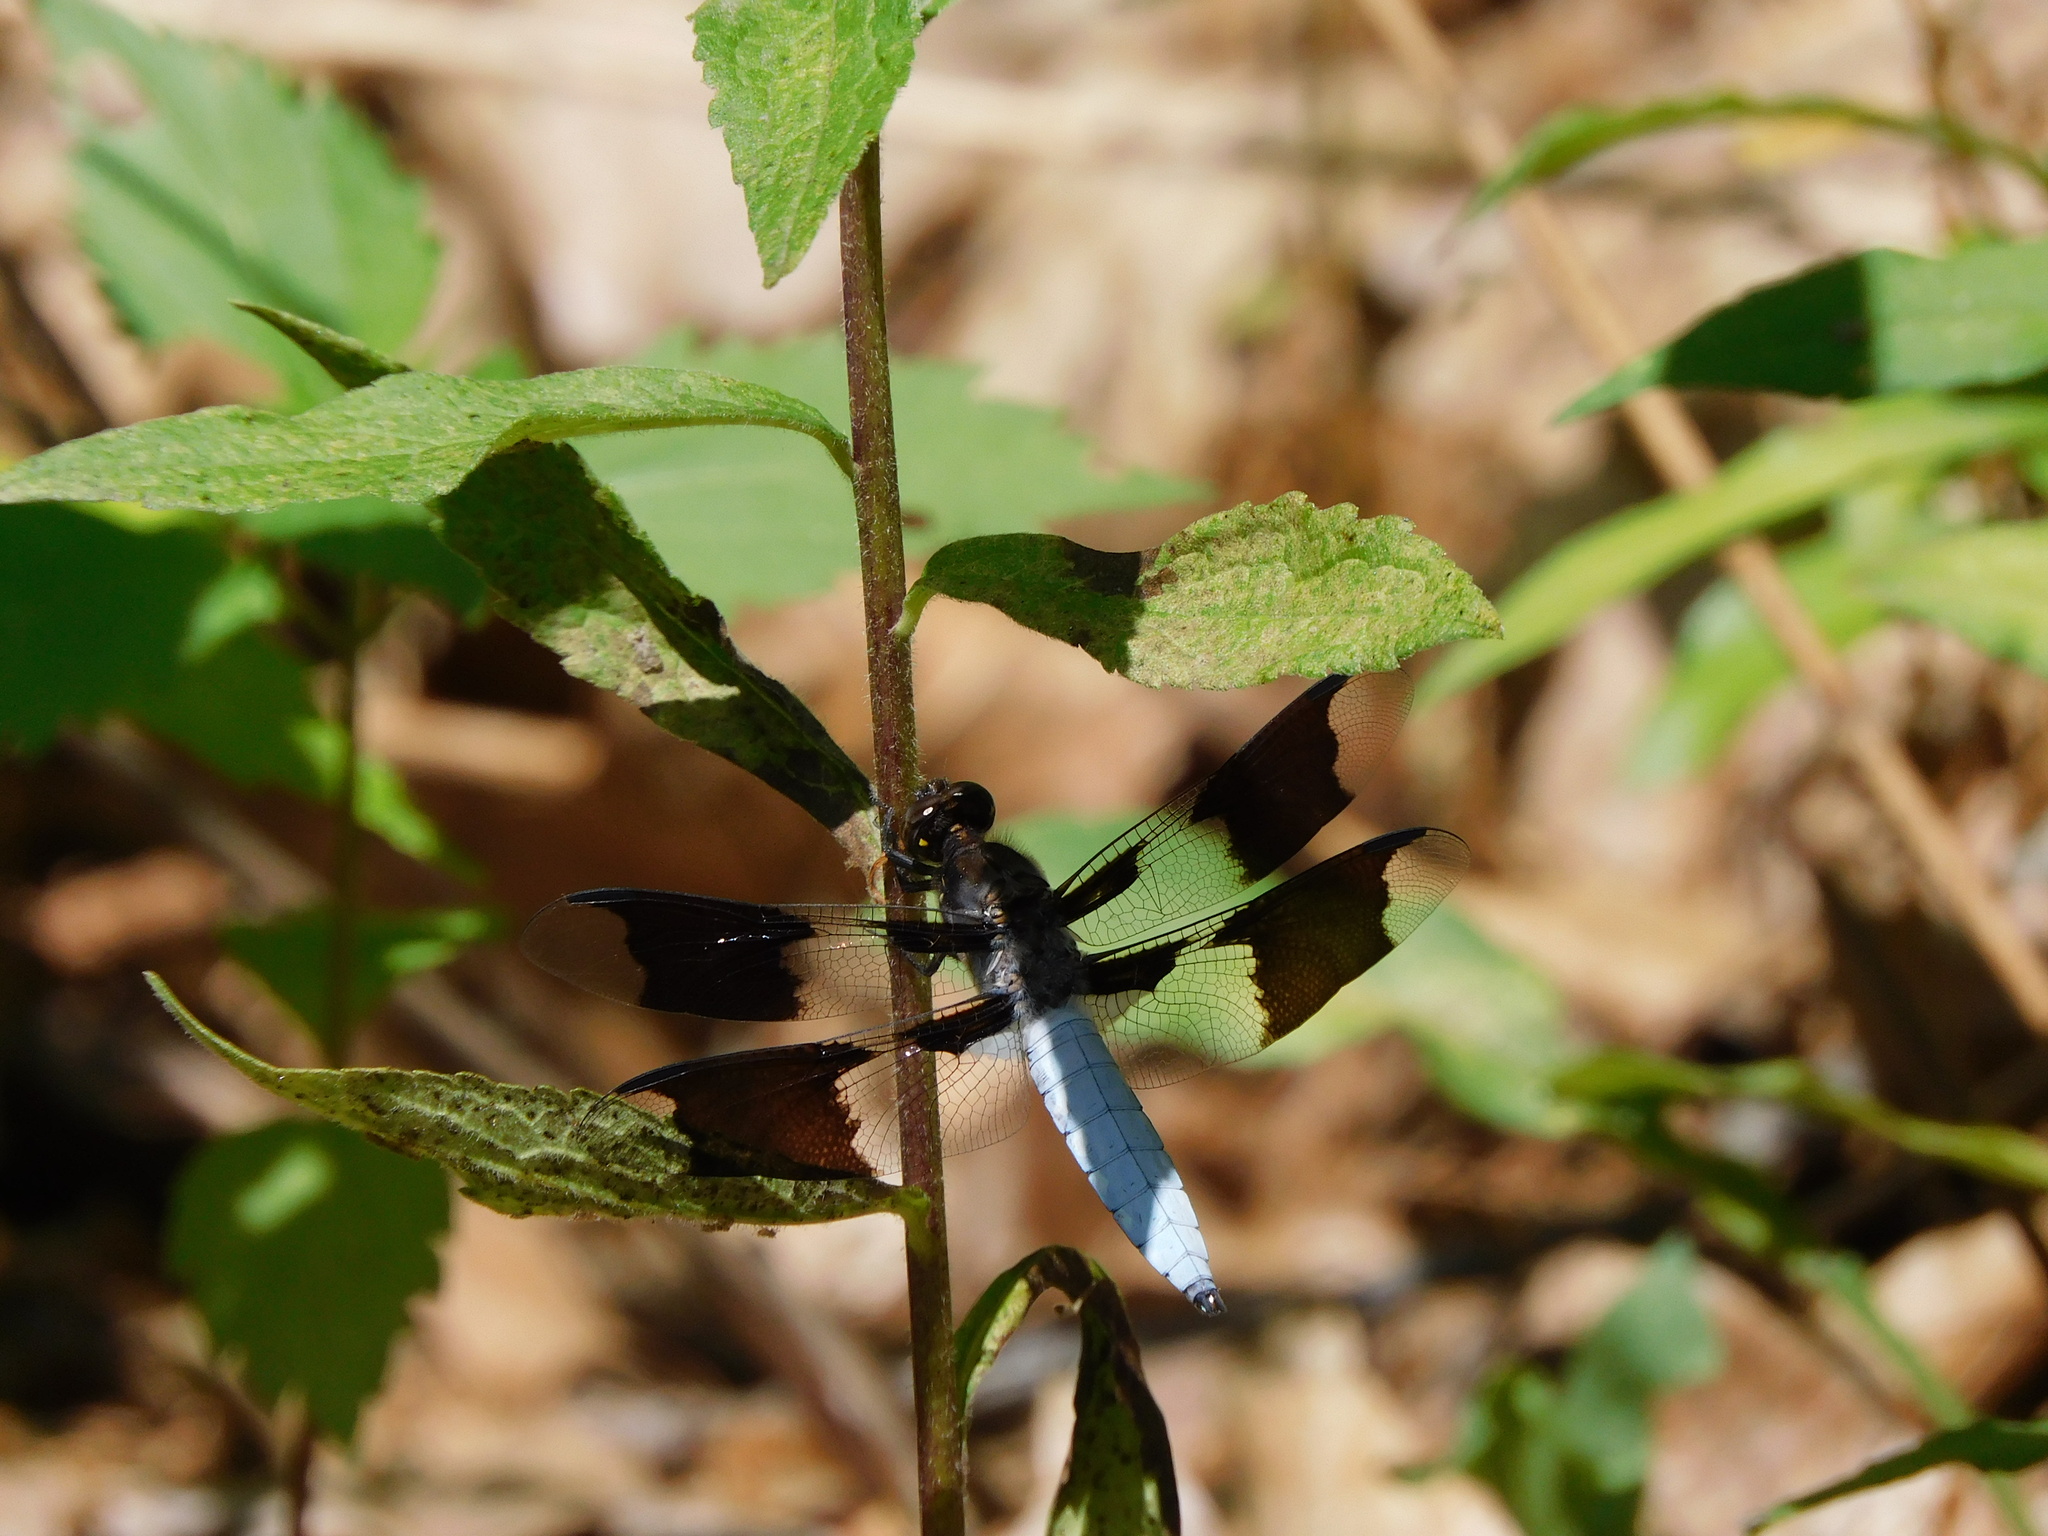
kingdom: Animalia
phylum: Arthropoda
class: Insecta
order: Odonata
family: Libellulidae
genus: Plathemis
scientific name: Plathemis lydia
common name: Common whitetail
